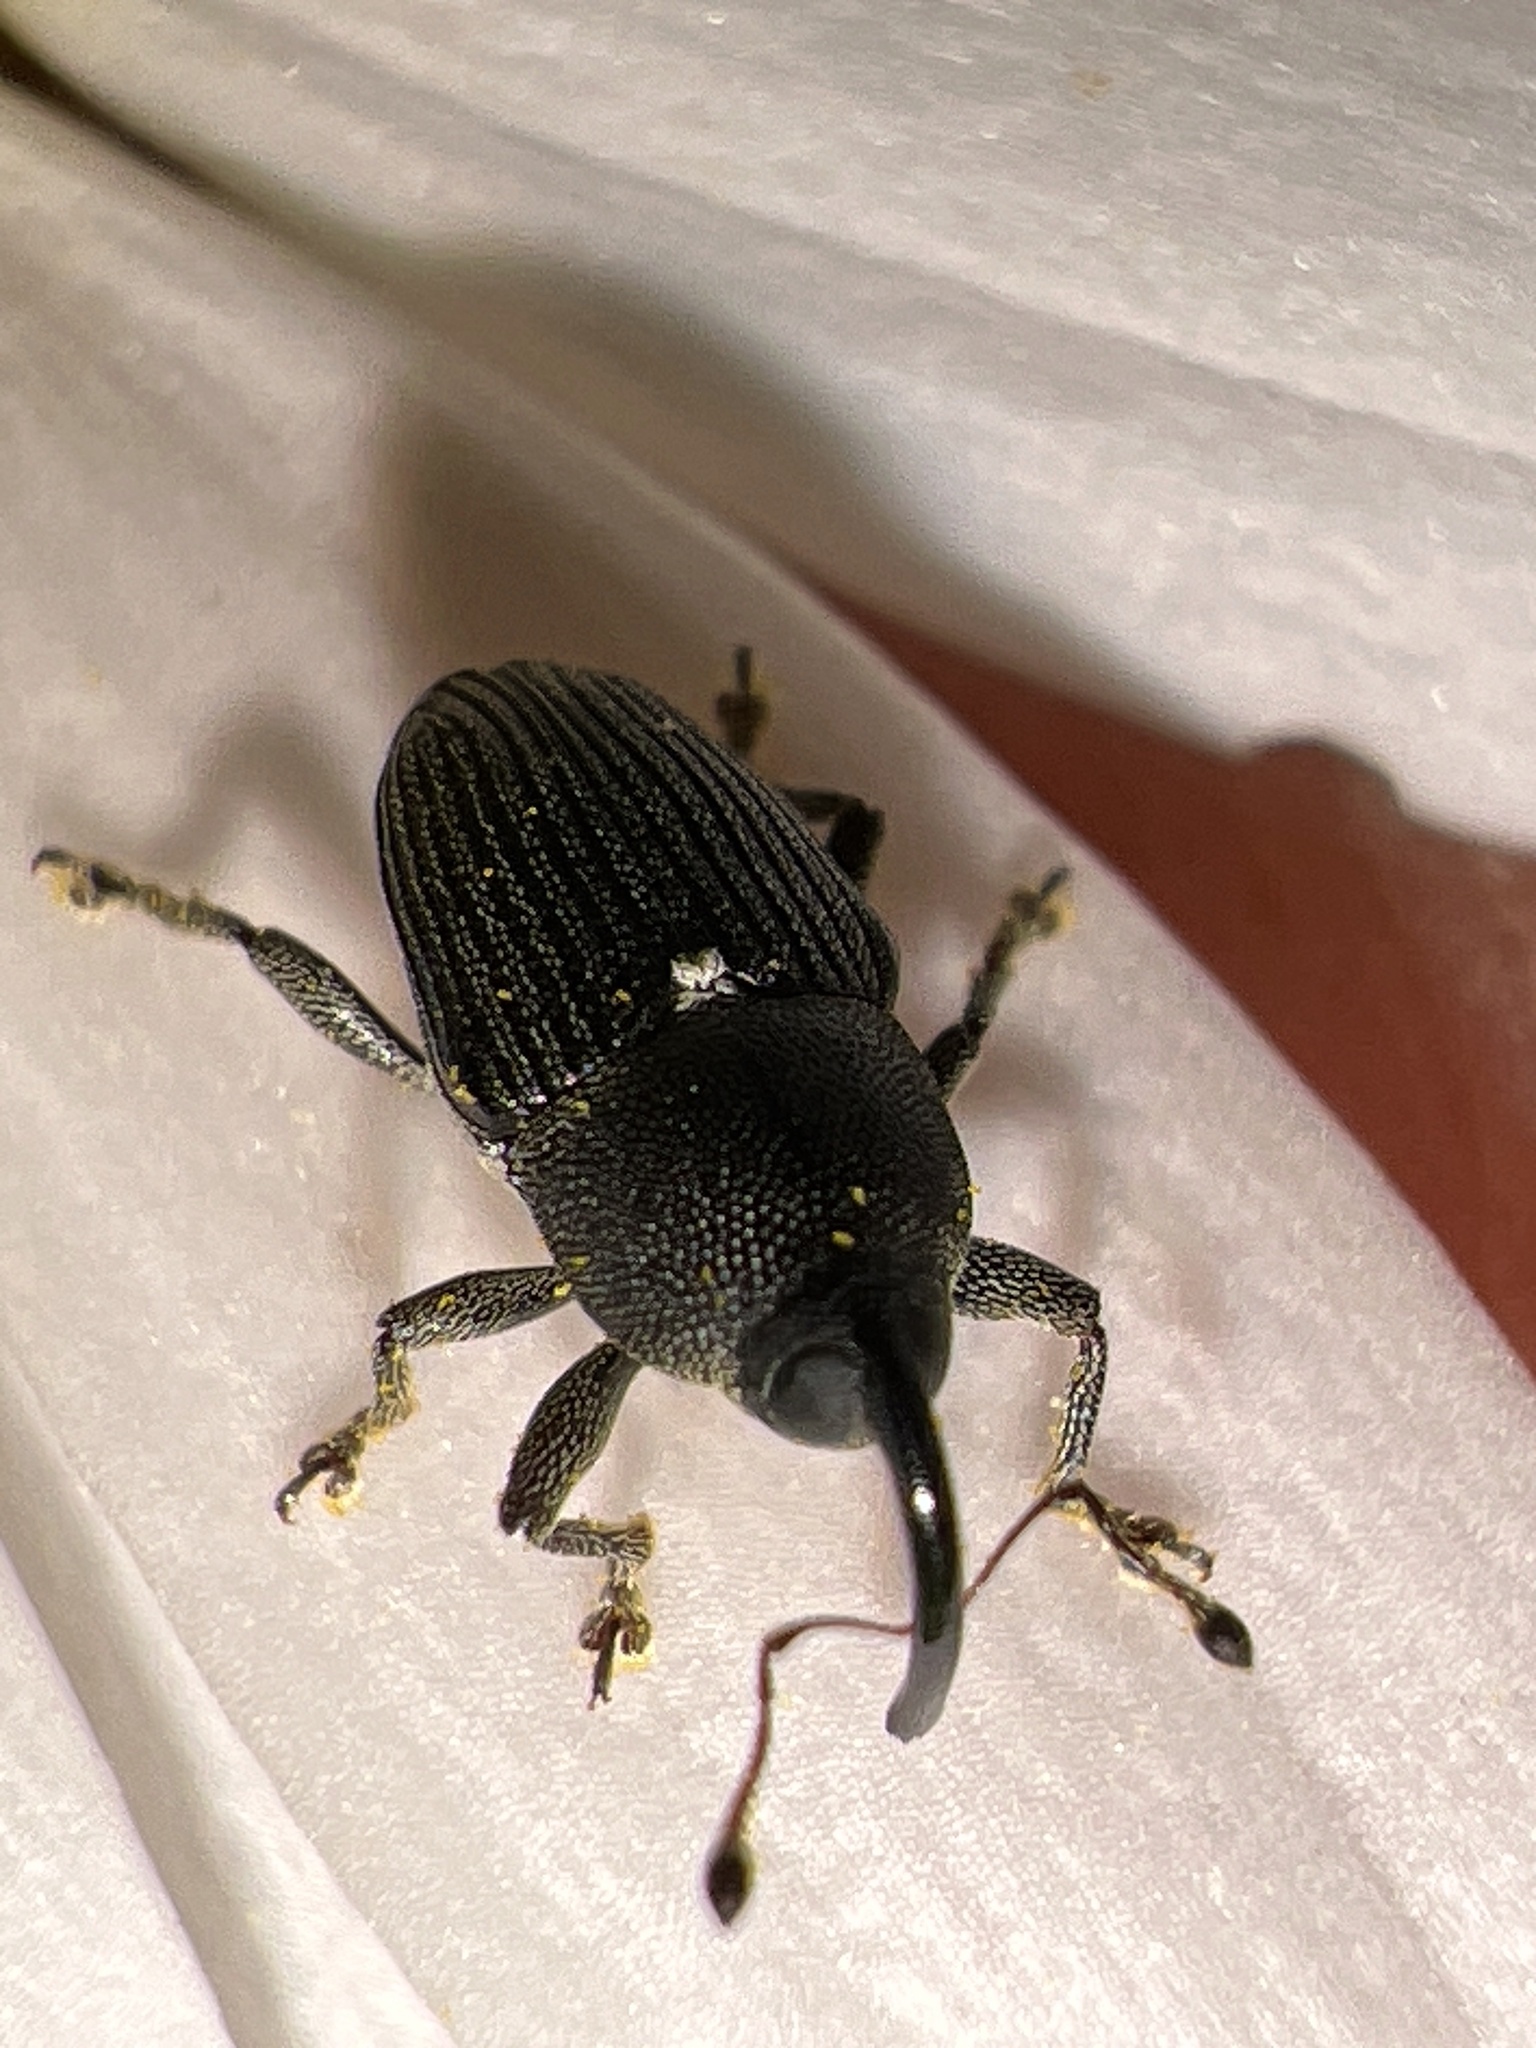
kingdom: Animalia
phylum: Arthropoda
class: Insecta
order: Coleoptera
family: Curculionidae
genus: Odontocorynus
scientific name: Odontocorynus salebrosus
